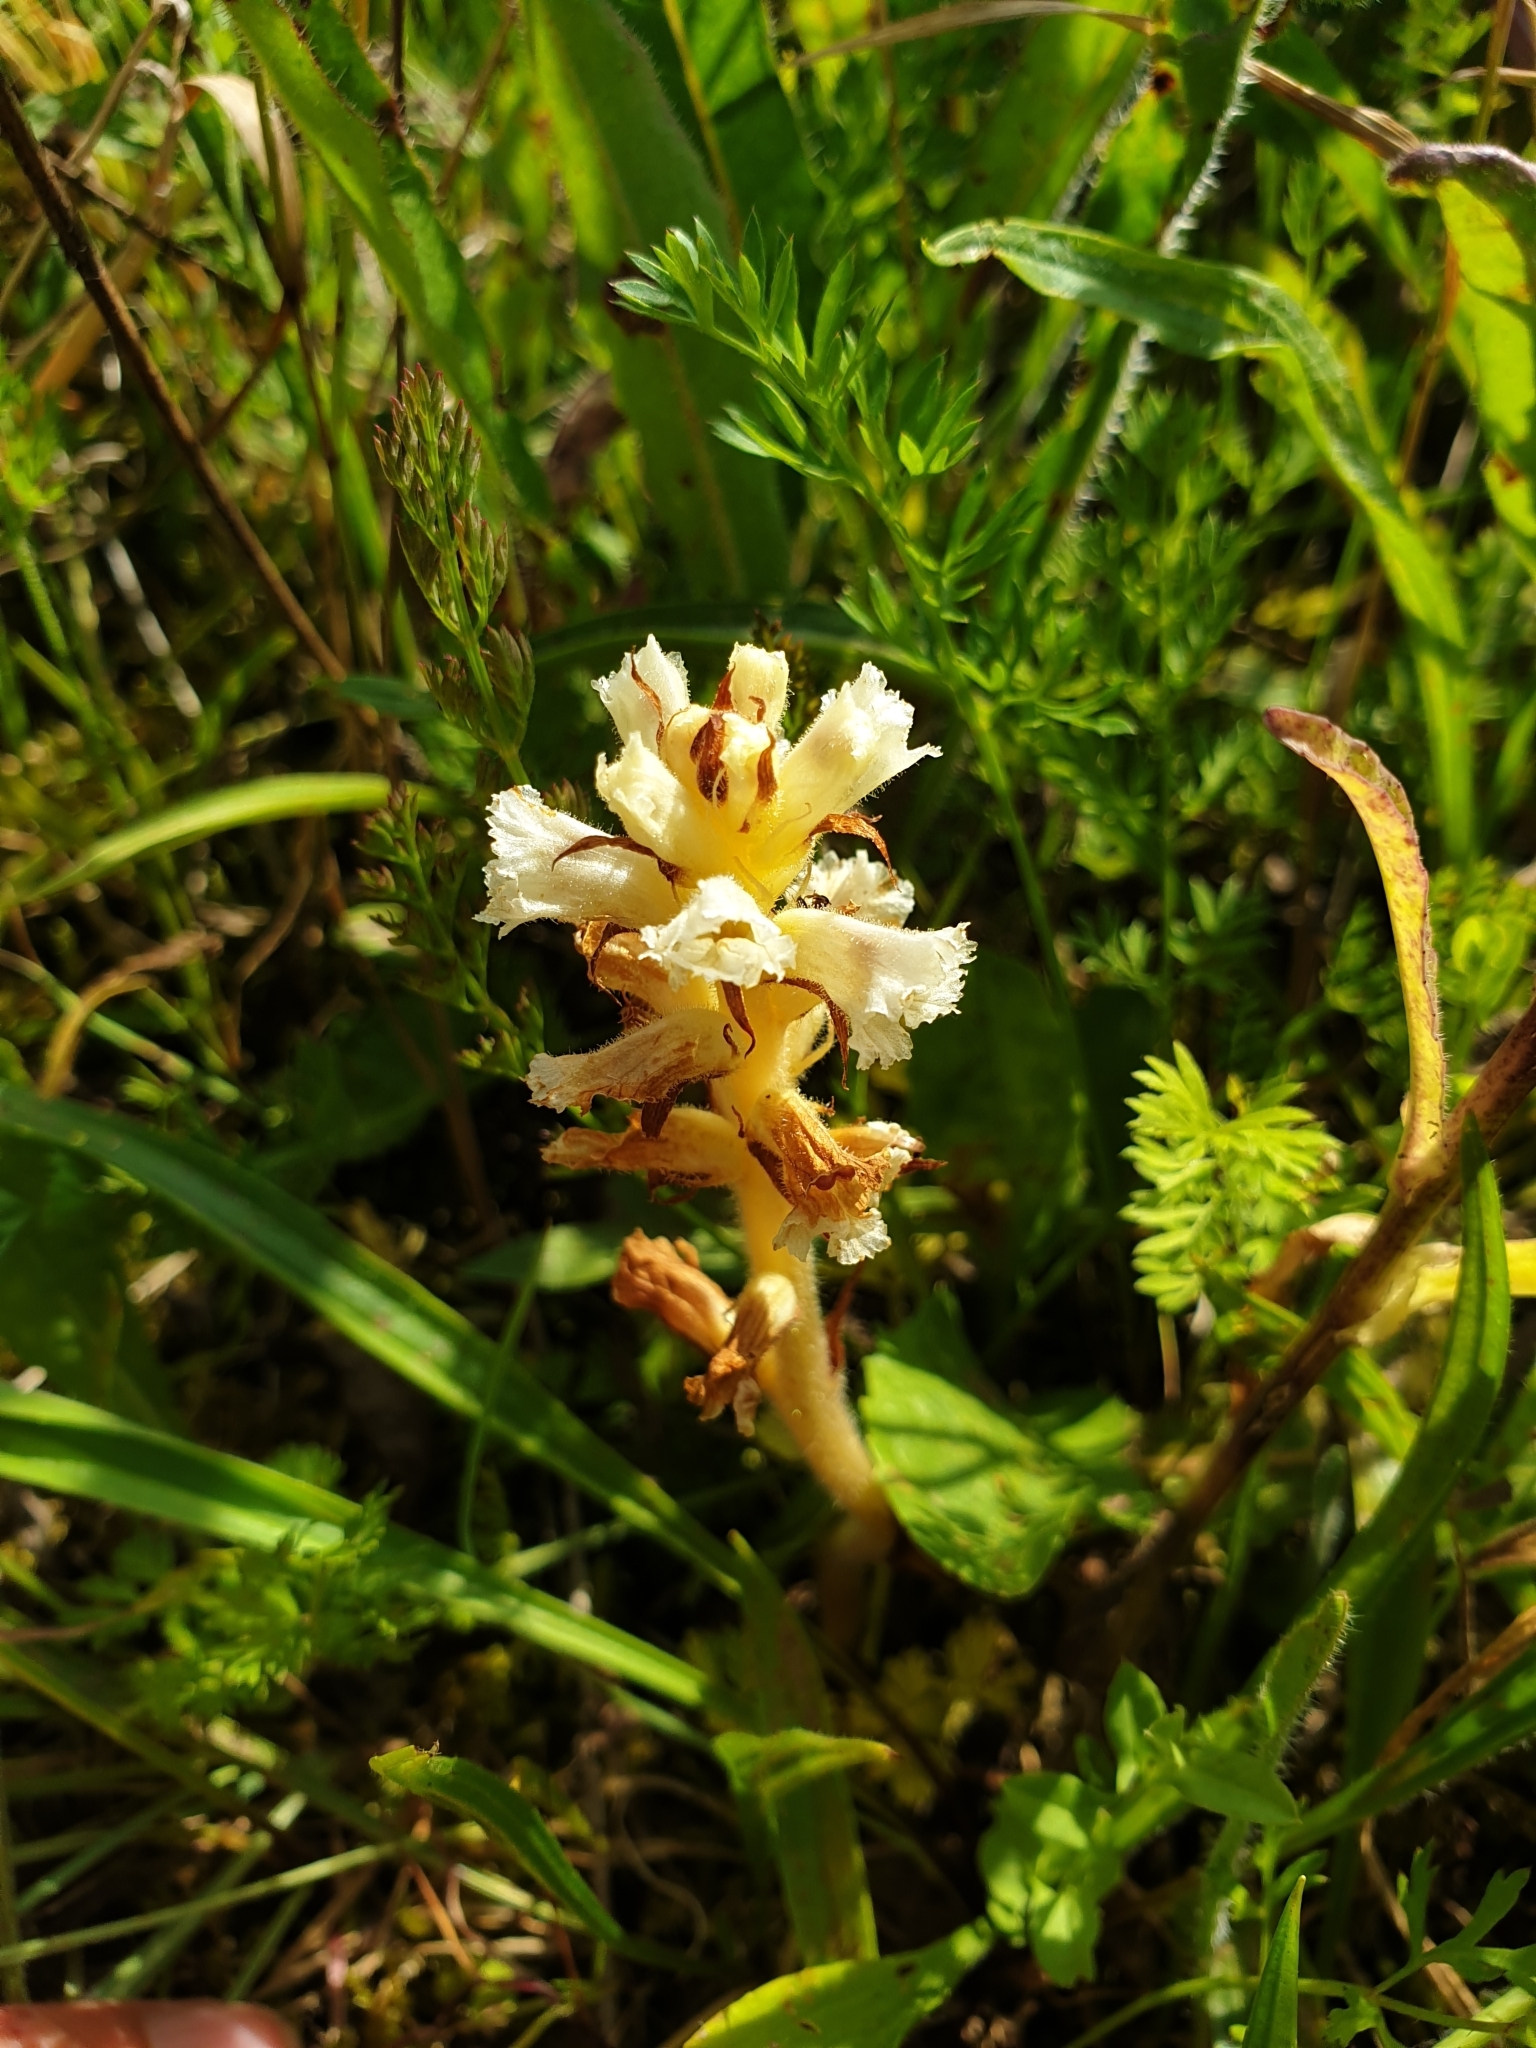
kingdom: Plantae
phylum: Tracheophyta
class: Magnoliopsida
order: Lamiales
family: Orobanchaceae
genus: Orobanche
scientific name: Orobanche picridis
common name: Oxtongue broomrape
